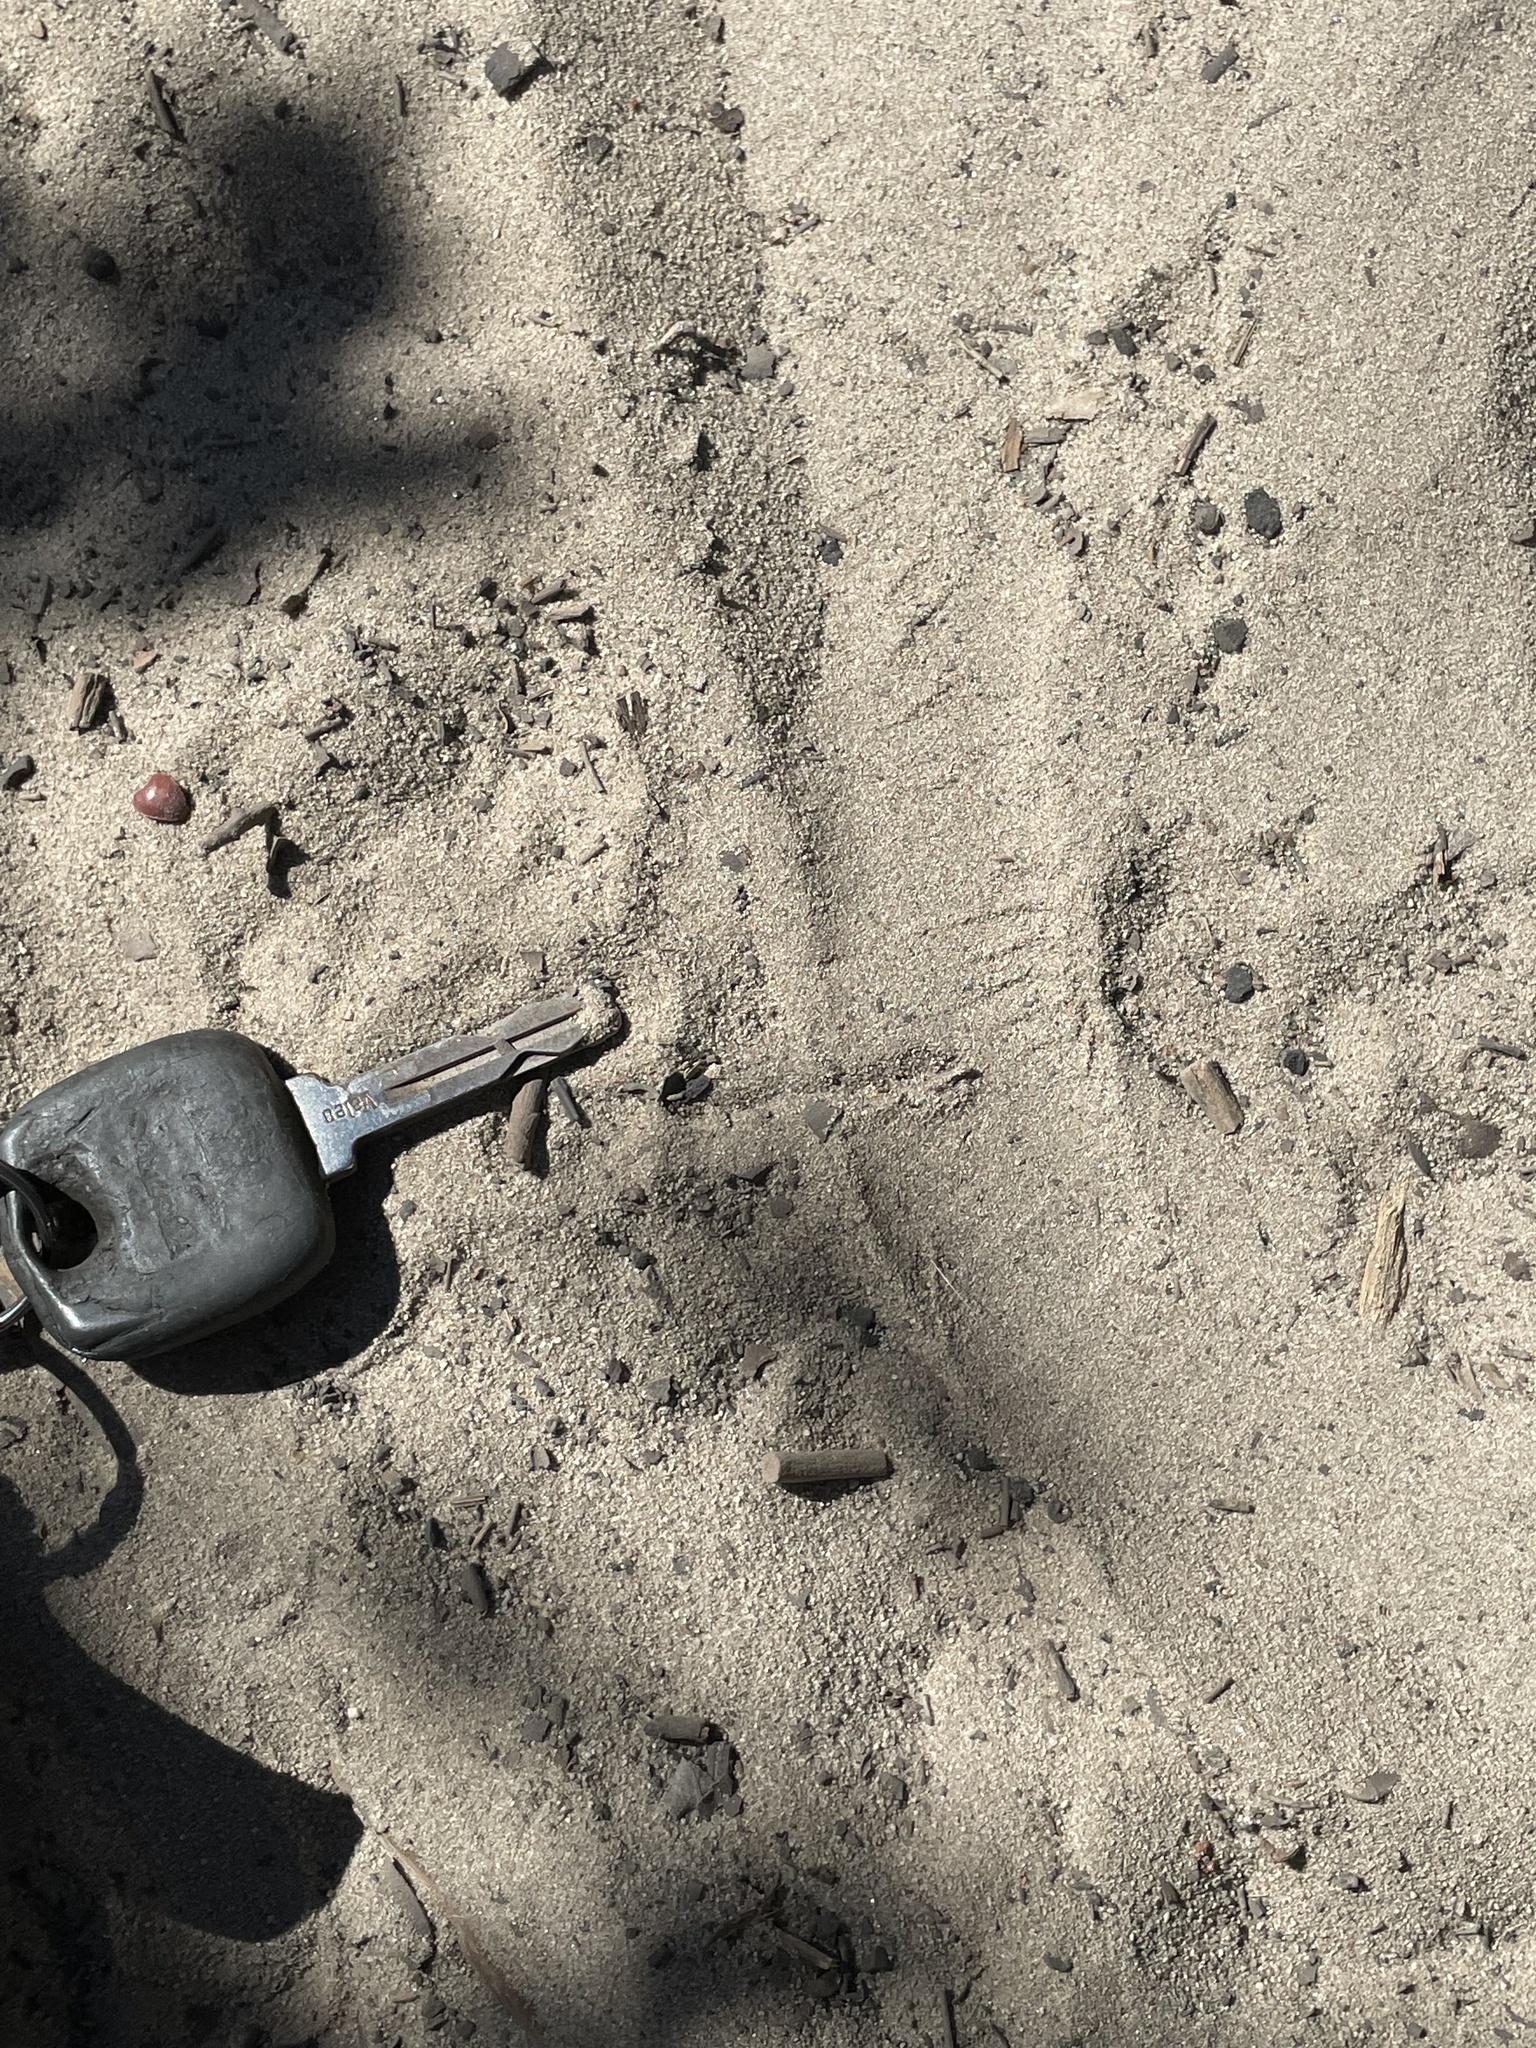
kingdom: Animalia
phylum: Chordata
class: Squamata
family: Viperidae
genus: Crotalus
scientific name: Crotalus oreganus
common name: Abyssus
